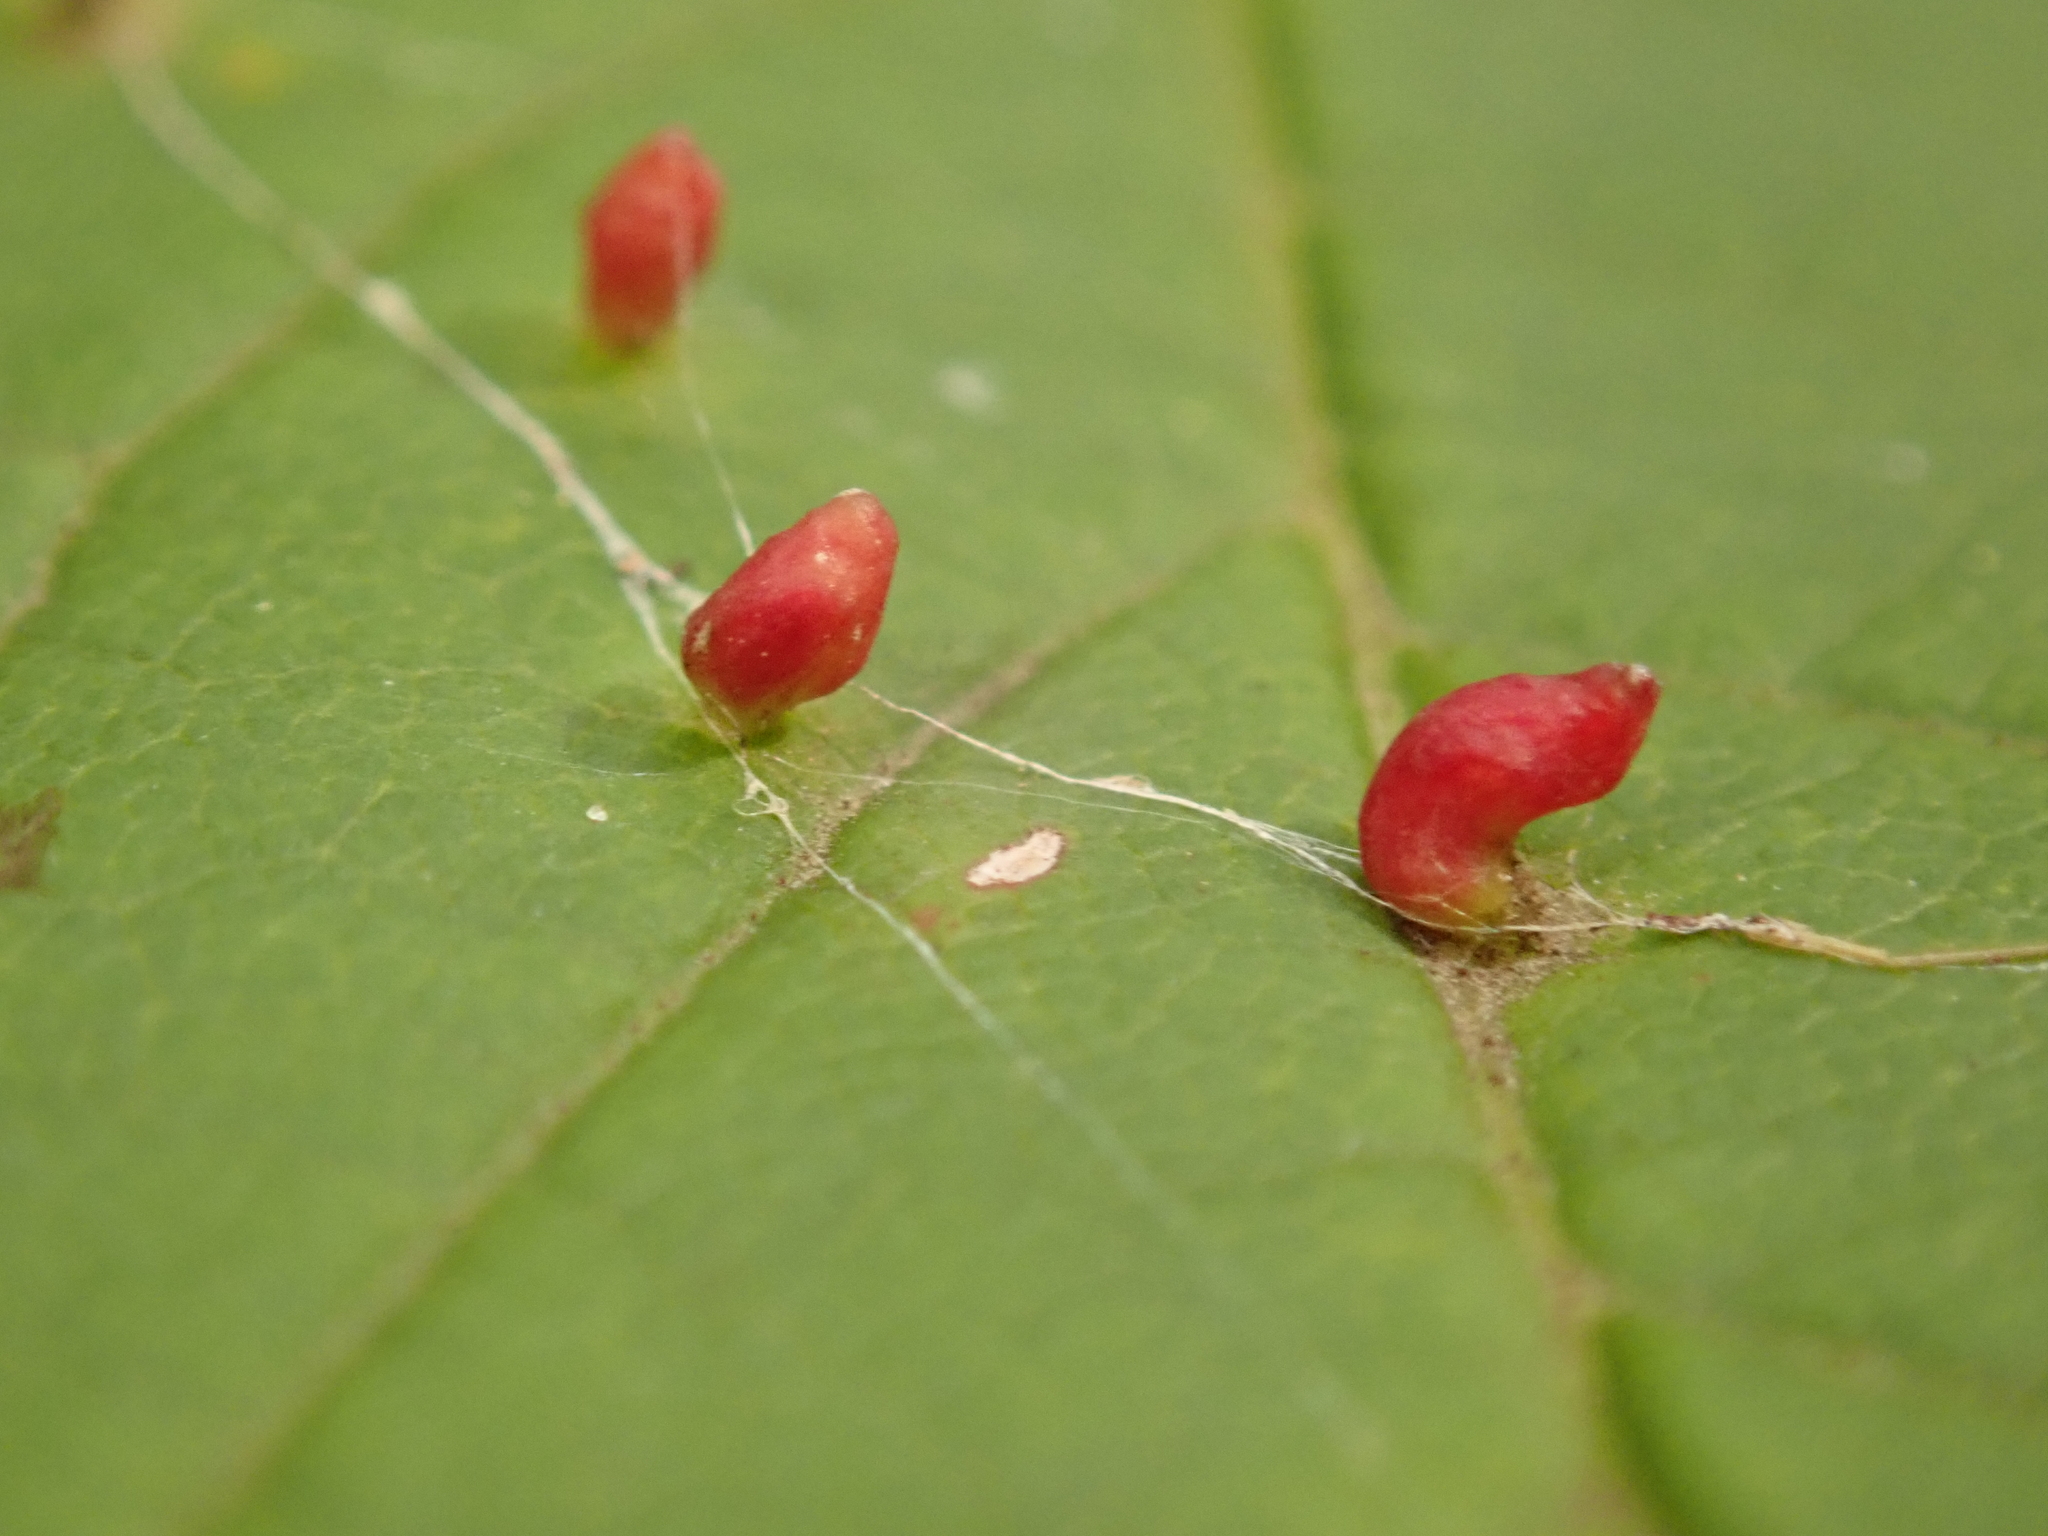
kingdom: Animalia
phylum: Arthropoda
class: Arachnida
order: Trombidiformes
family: Eriophyidae
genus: Aceria
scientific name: Aceria cephaloneus
